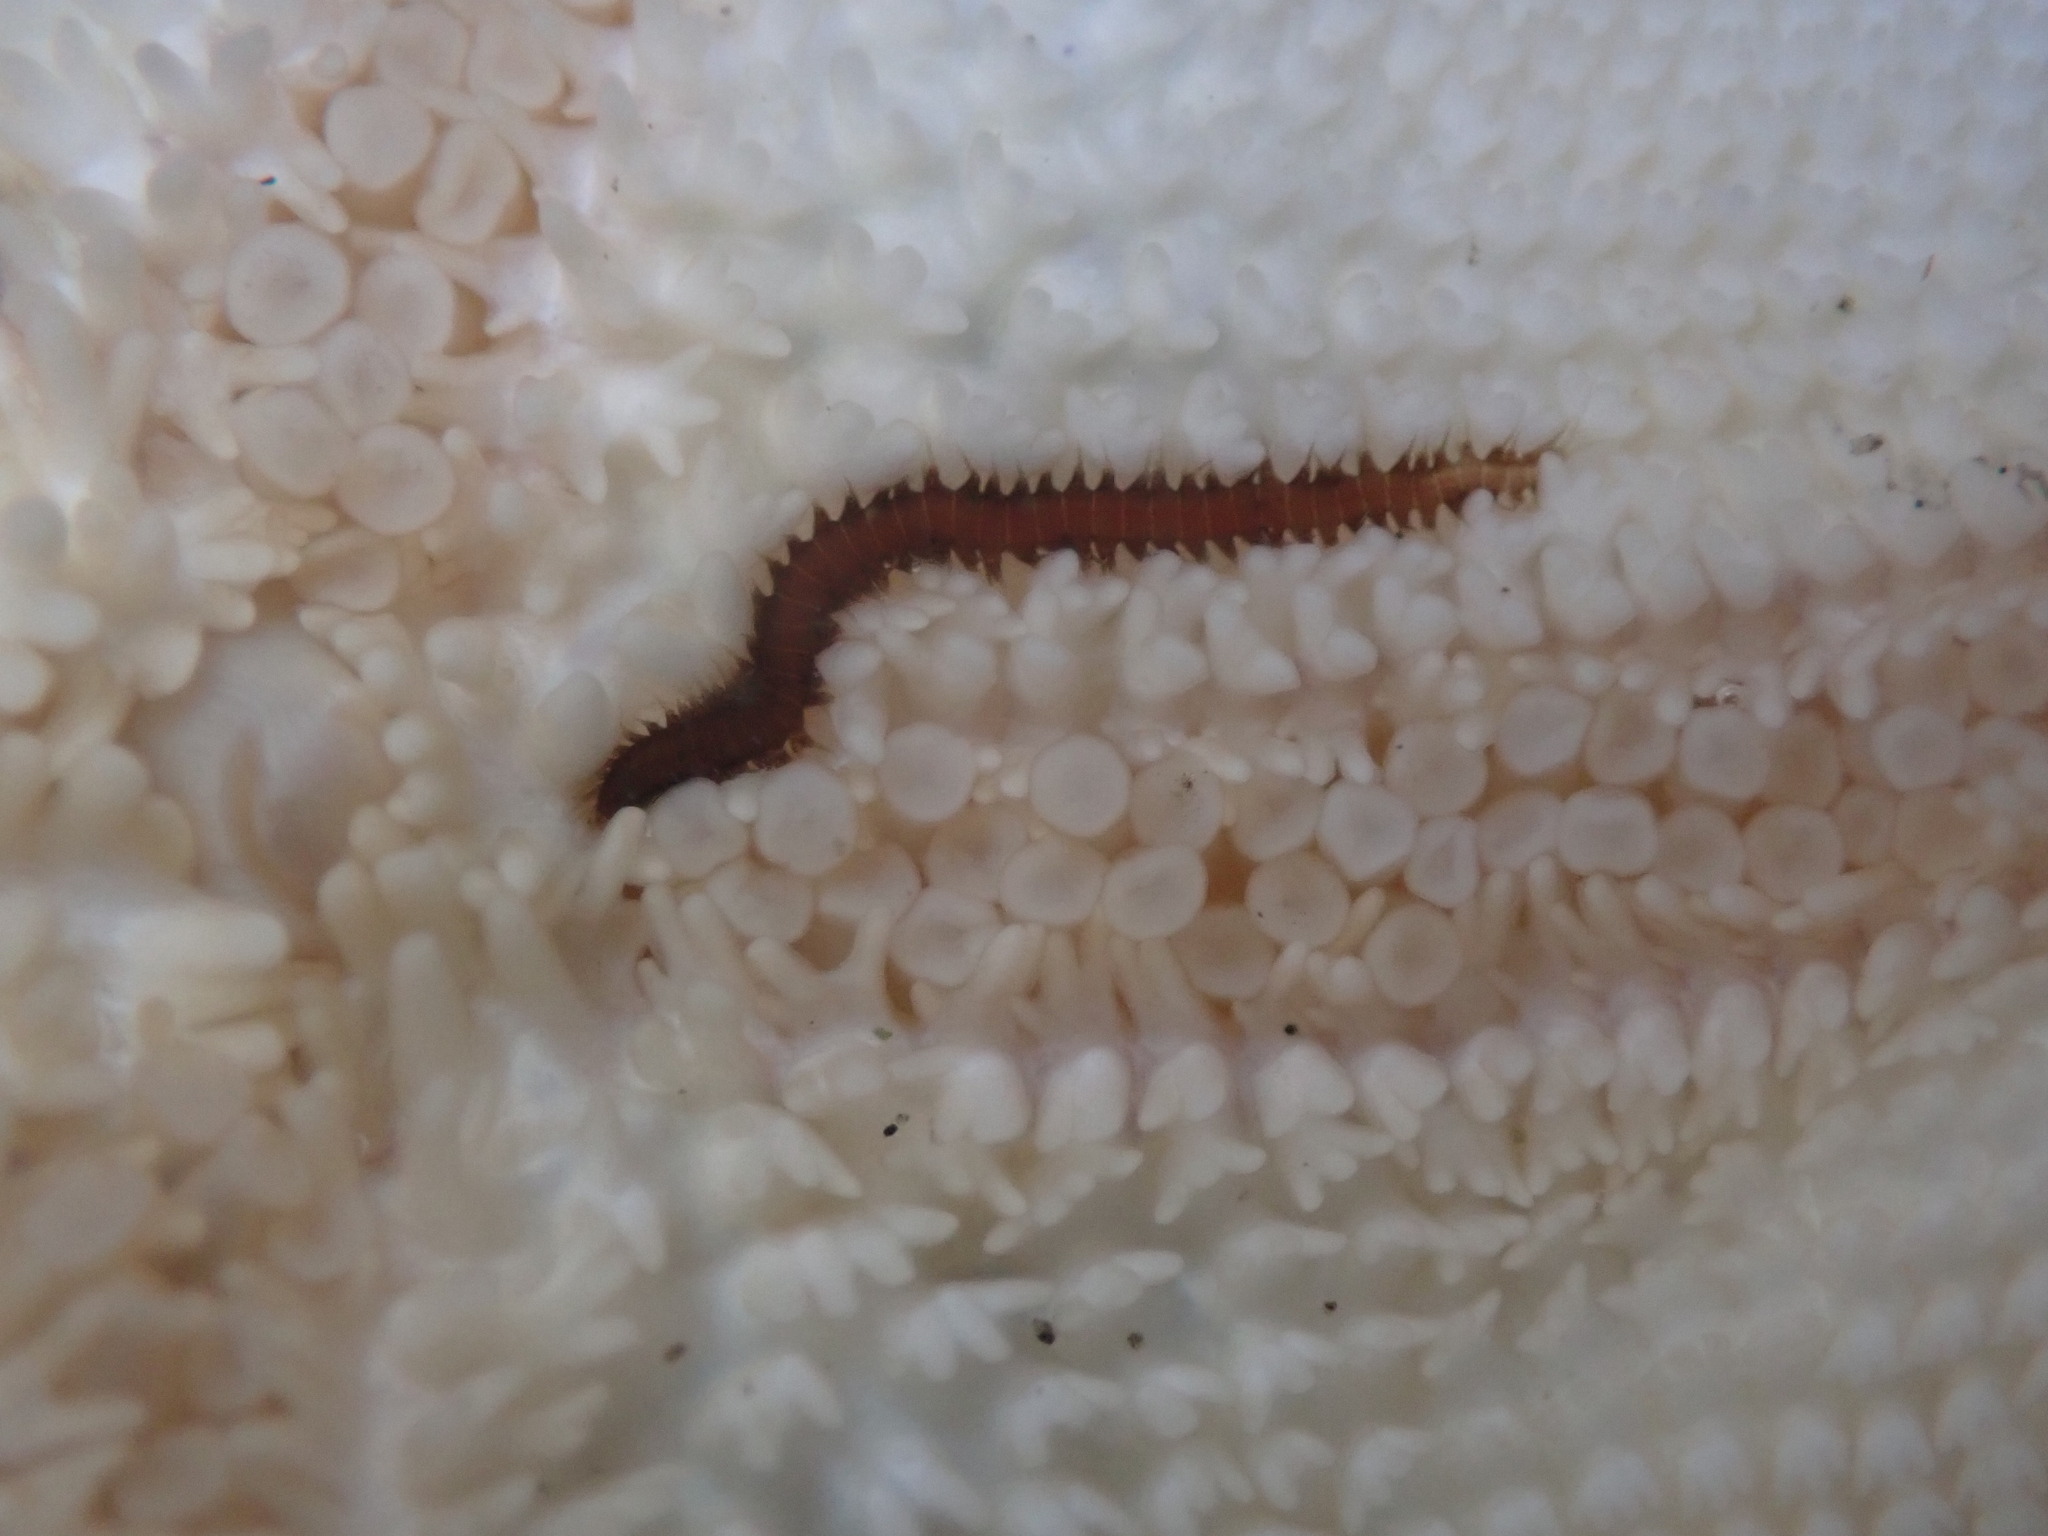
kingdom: Animalia
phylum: Annelida
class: Polychaeta
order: Phyllodocida
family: Hesionidae
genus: Oxydromus
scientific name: Oxydromus pugettensis
